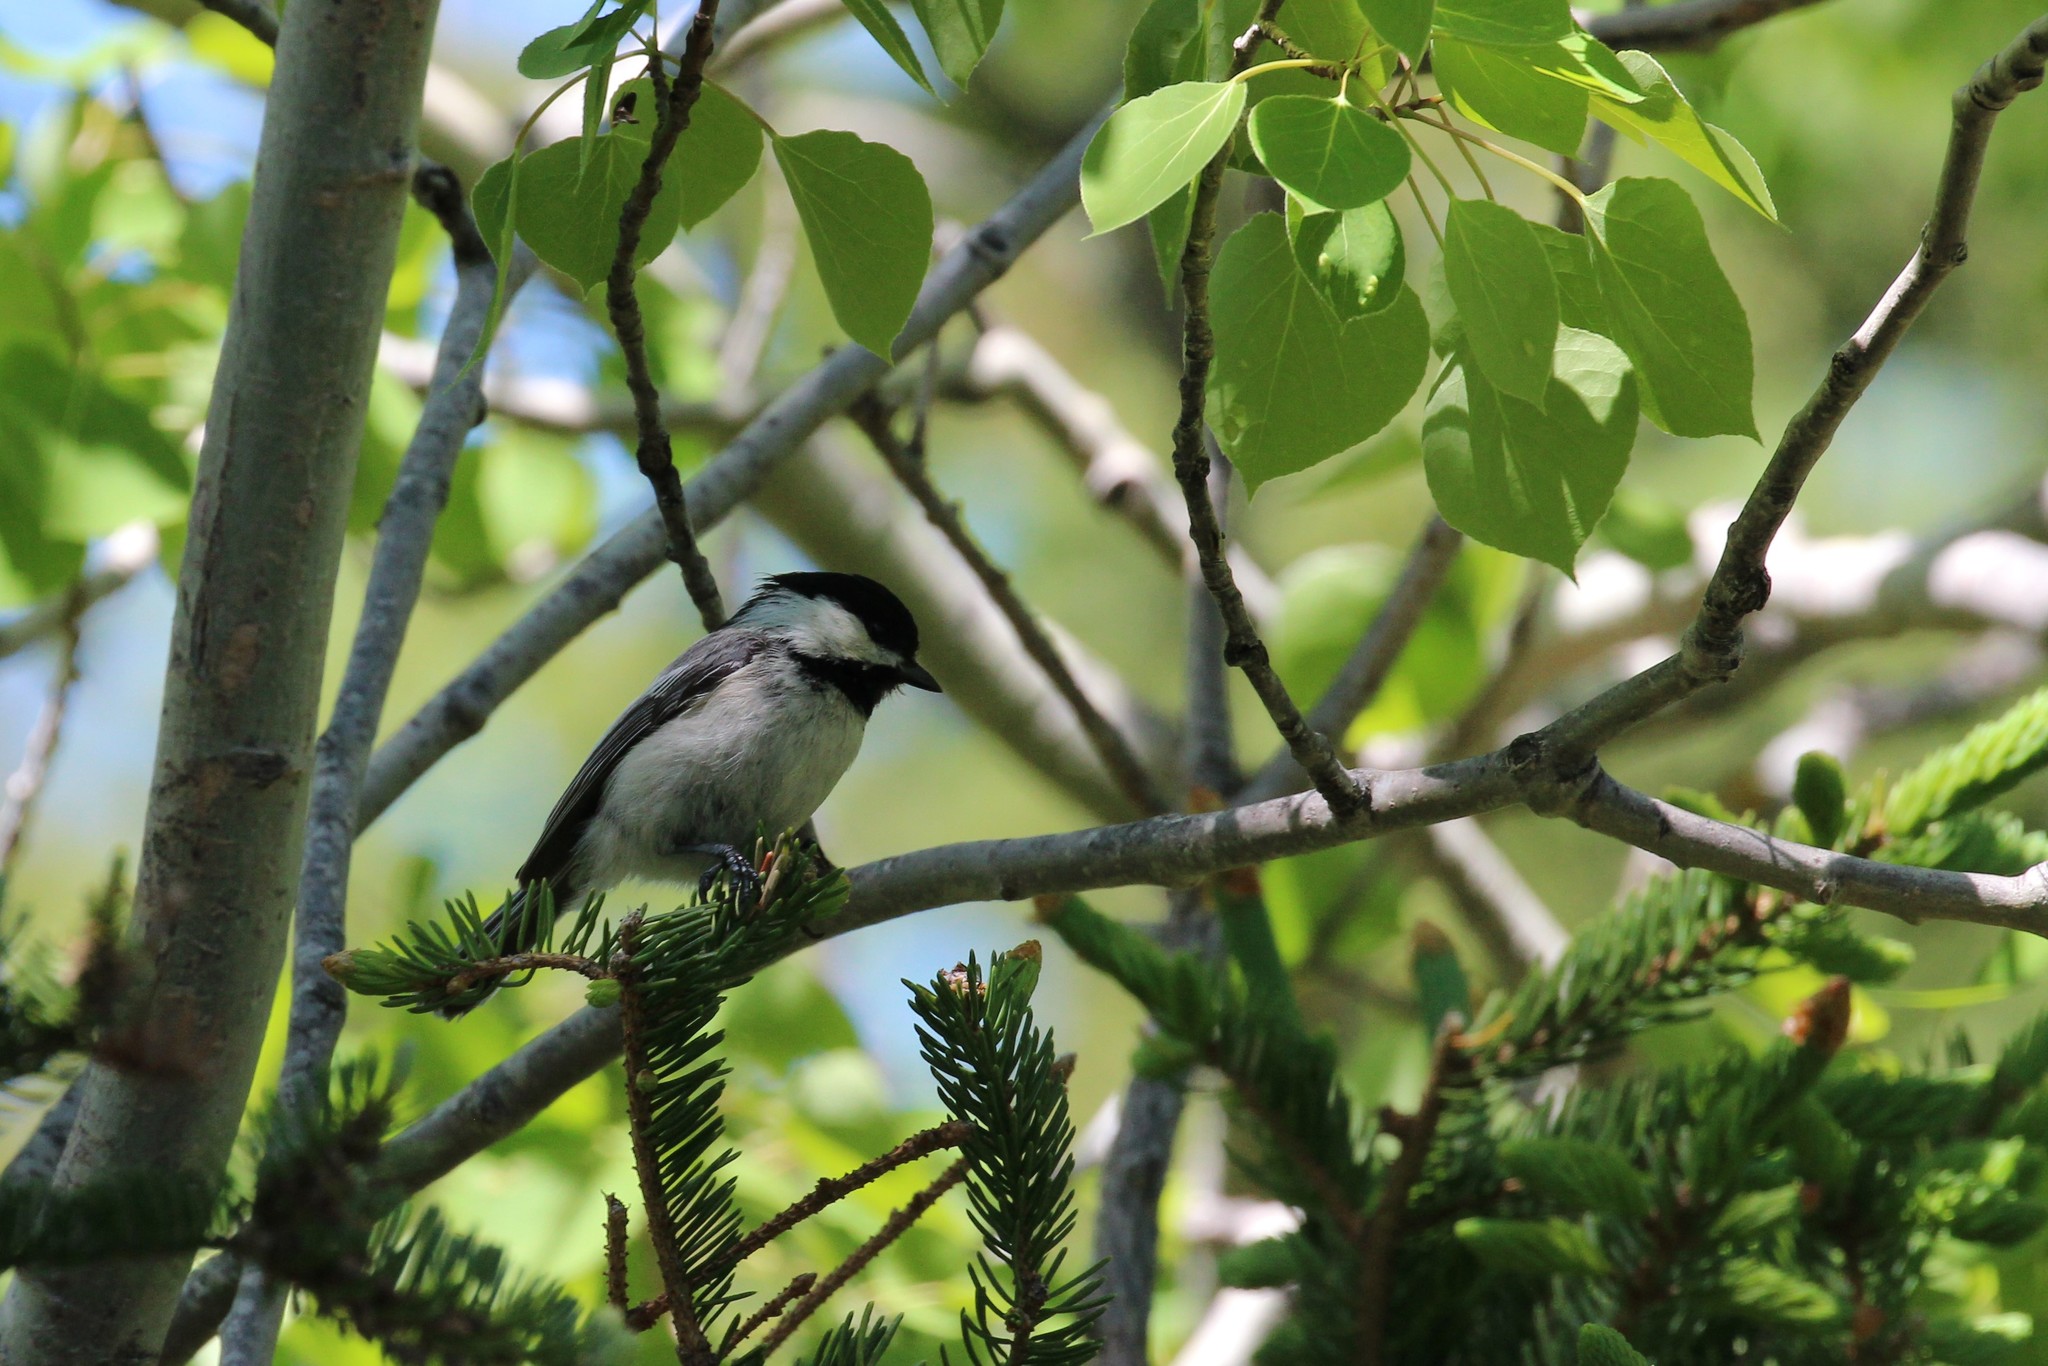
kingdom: Animalia
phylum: Chordata
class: Aves
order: Passeriformes
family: Paridae
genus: Poecile
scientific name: Poecile atricapillus
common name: Black-capped chickadee
